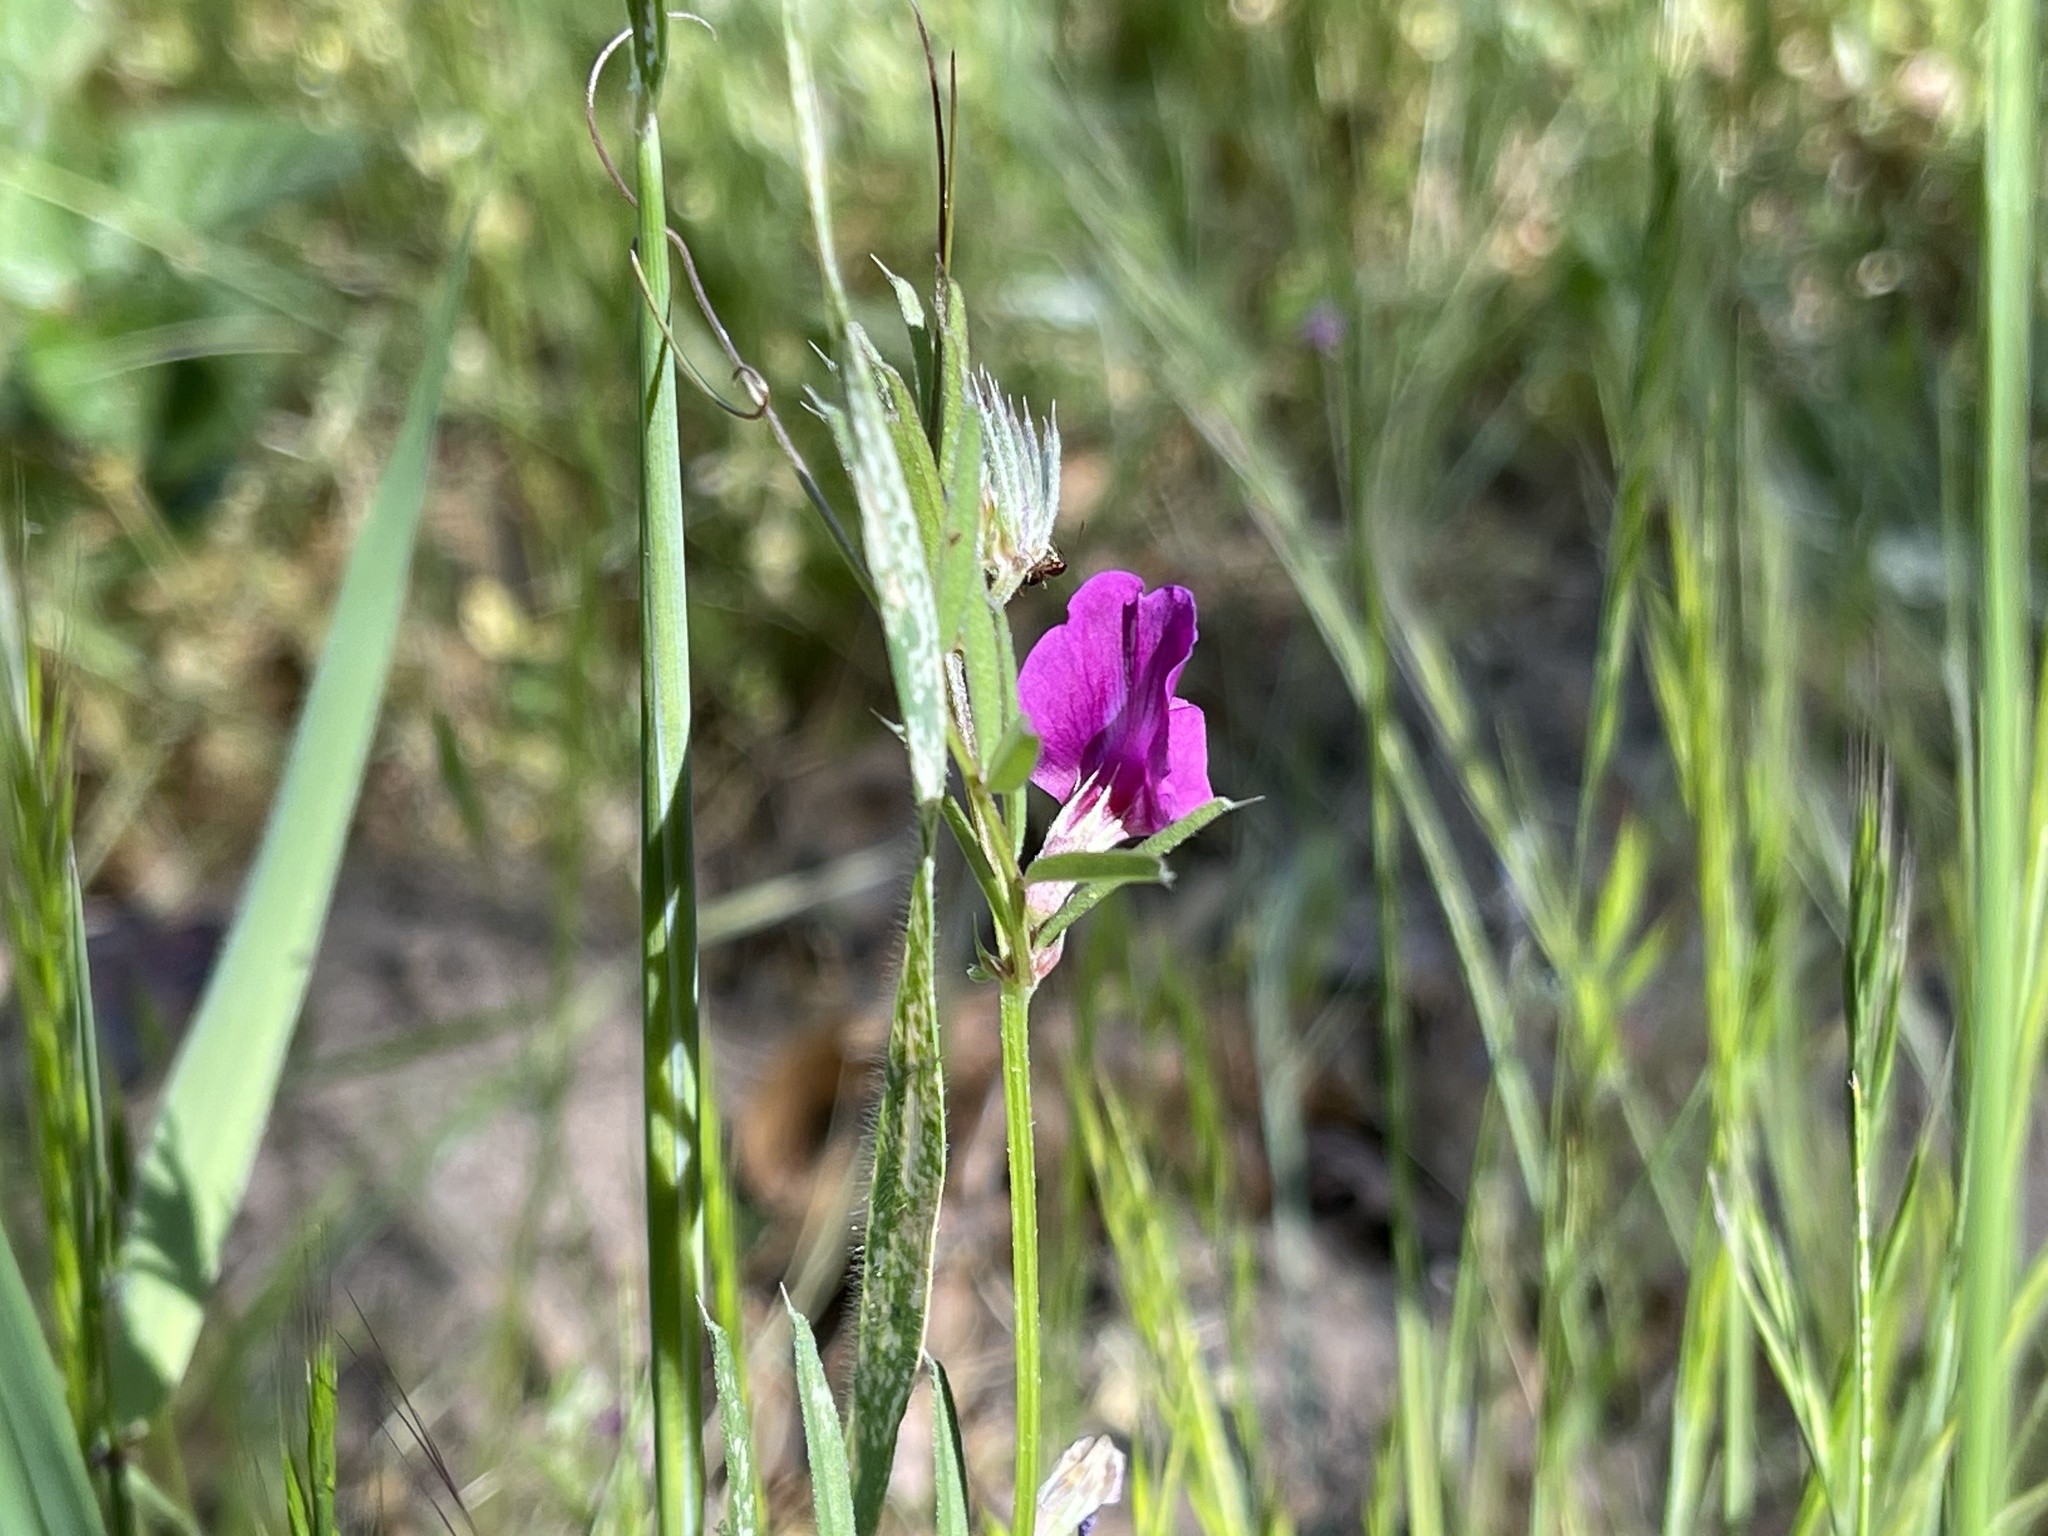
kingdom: Plantae
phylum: Tracheophyta
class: Magnoliopsida
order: Fabales
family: Fabaceae
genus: Vicia
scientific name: Vicia sativa
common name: Garden vetch
